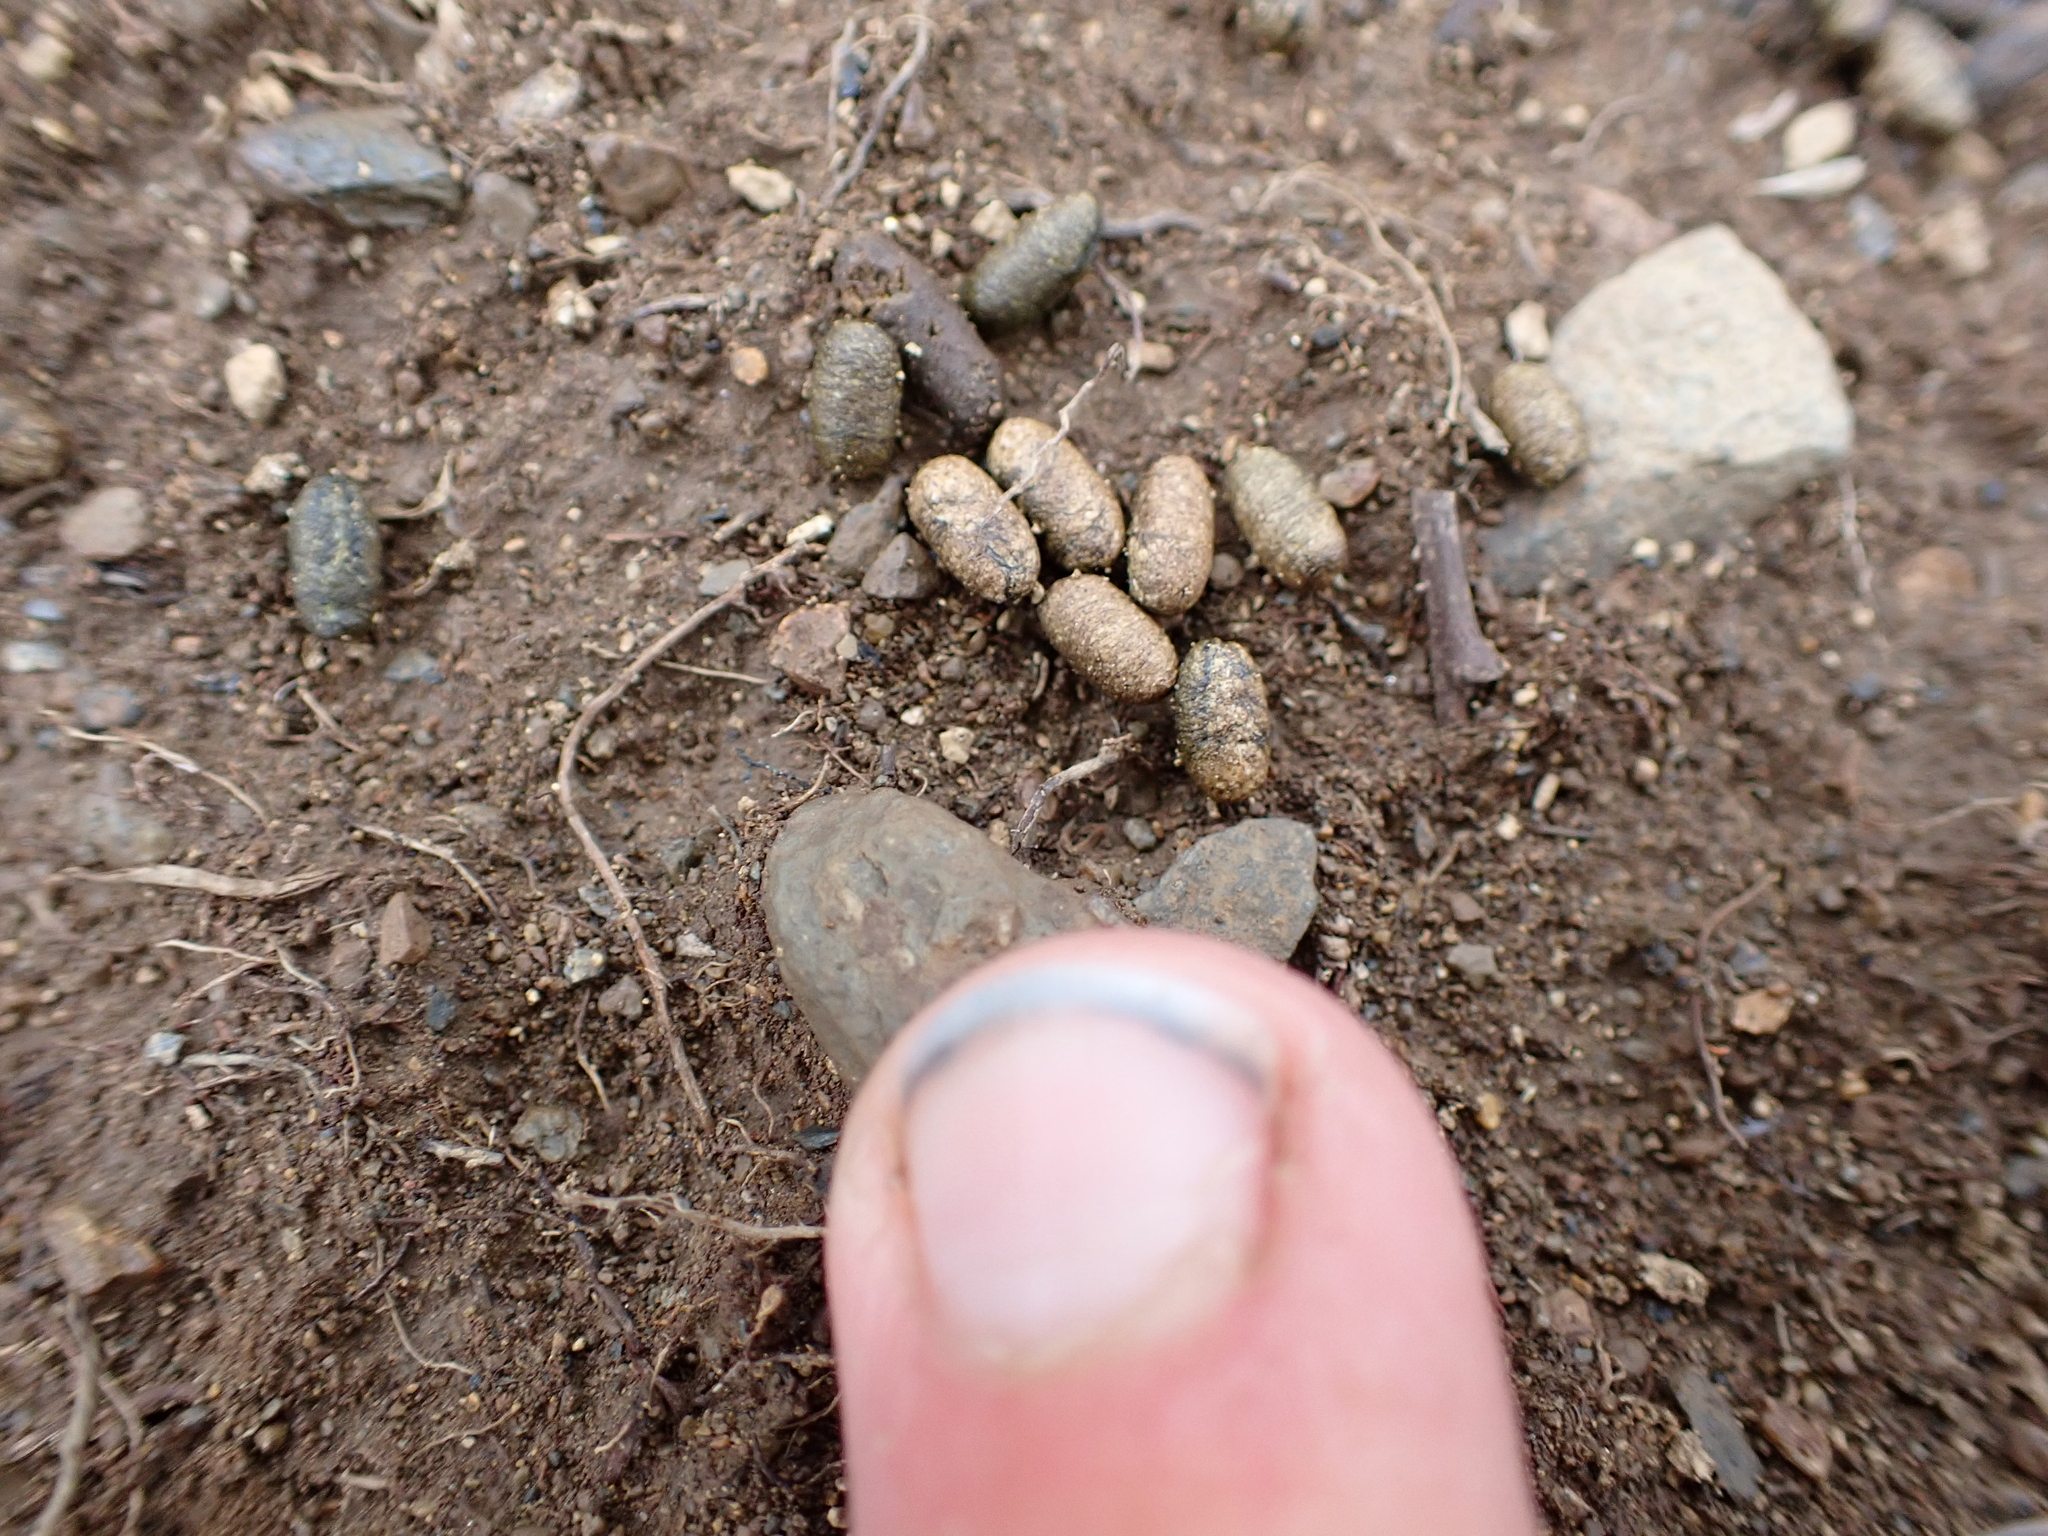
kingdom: Animalia
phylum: Chordata
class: Mammalia
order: Rodentia
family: Cricetidae
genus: Lemmus
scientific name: Lemmus trimucronatus
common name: Brown lemming
